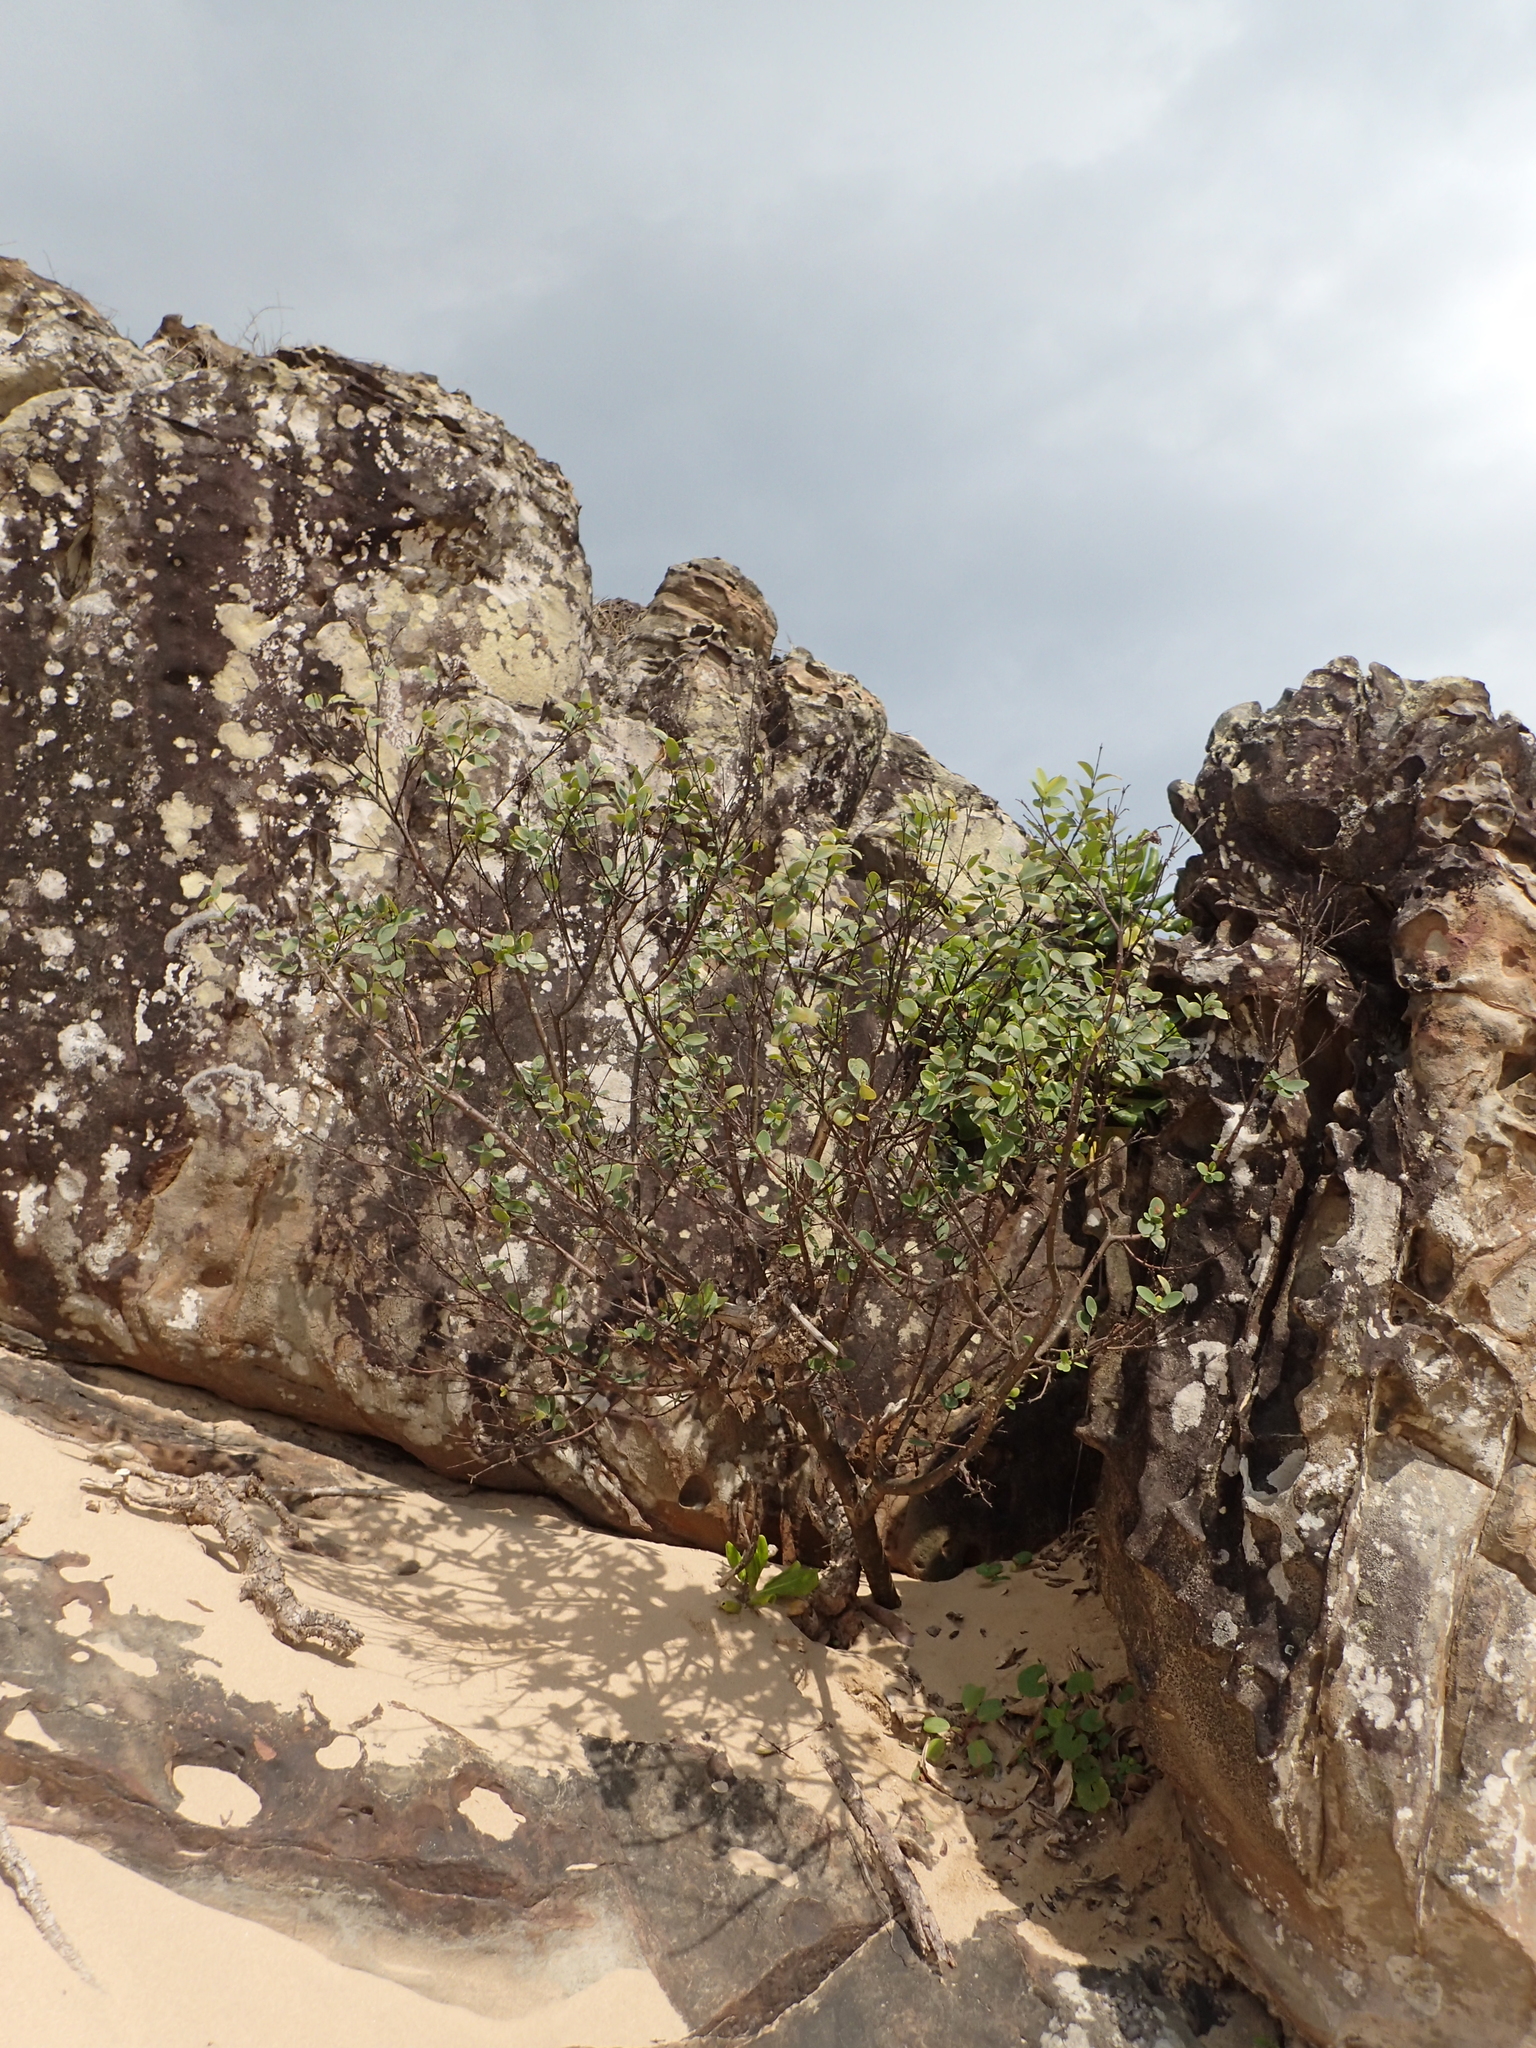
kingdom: Plantae
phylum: Tracheophyta
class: Magnoliopsida
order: Malvales
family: Thymelaeaceae
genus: Wikstroemia
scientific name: Wikstroemia indica
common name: Tiebush
